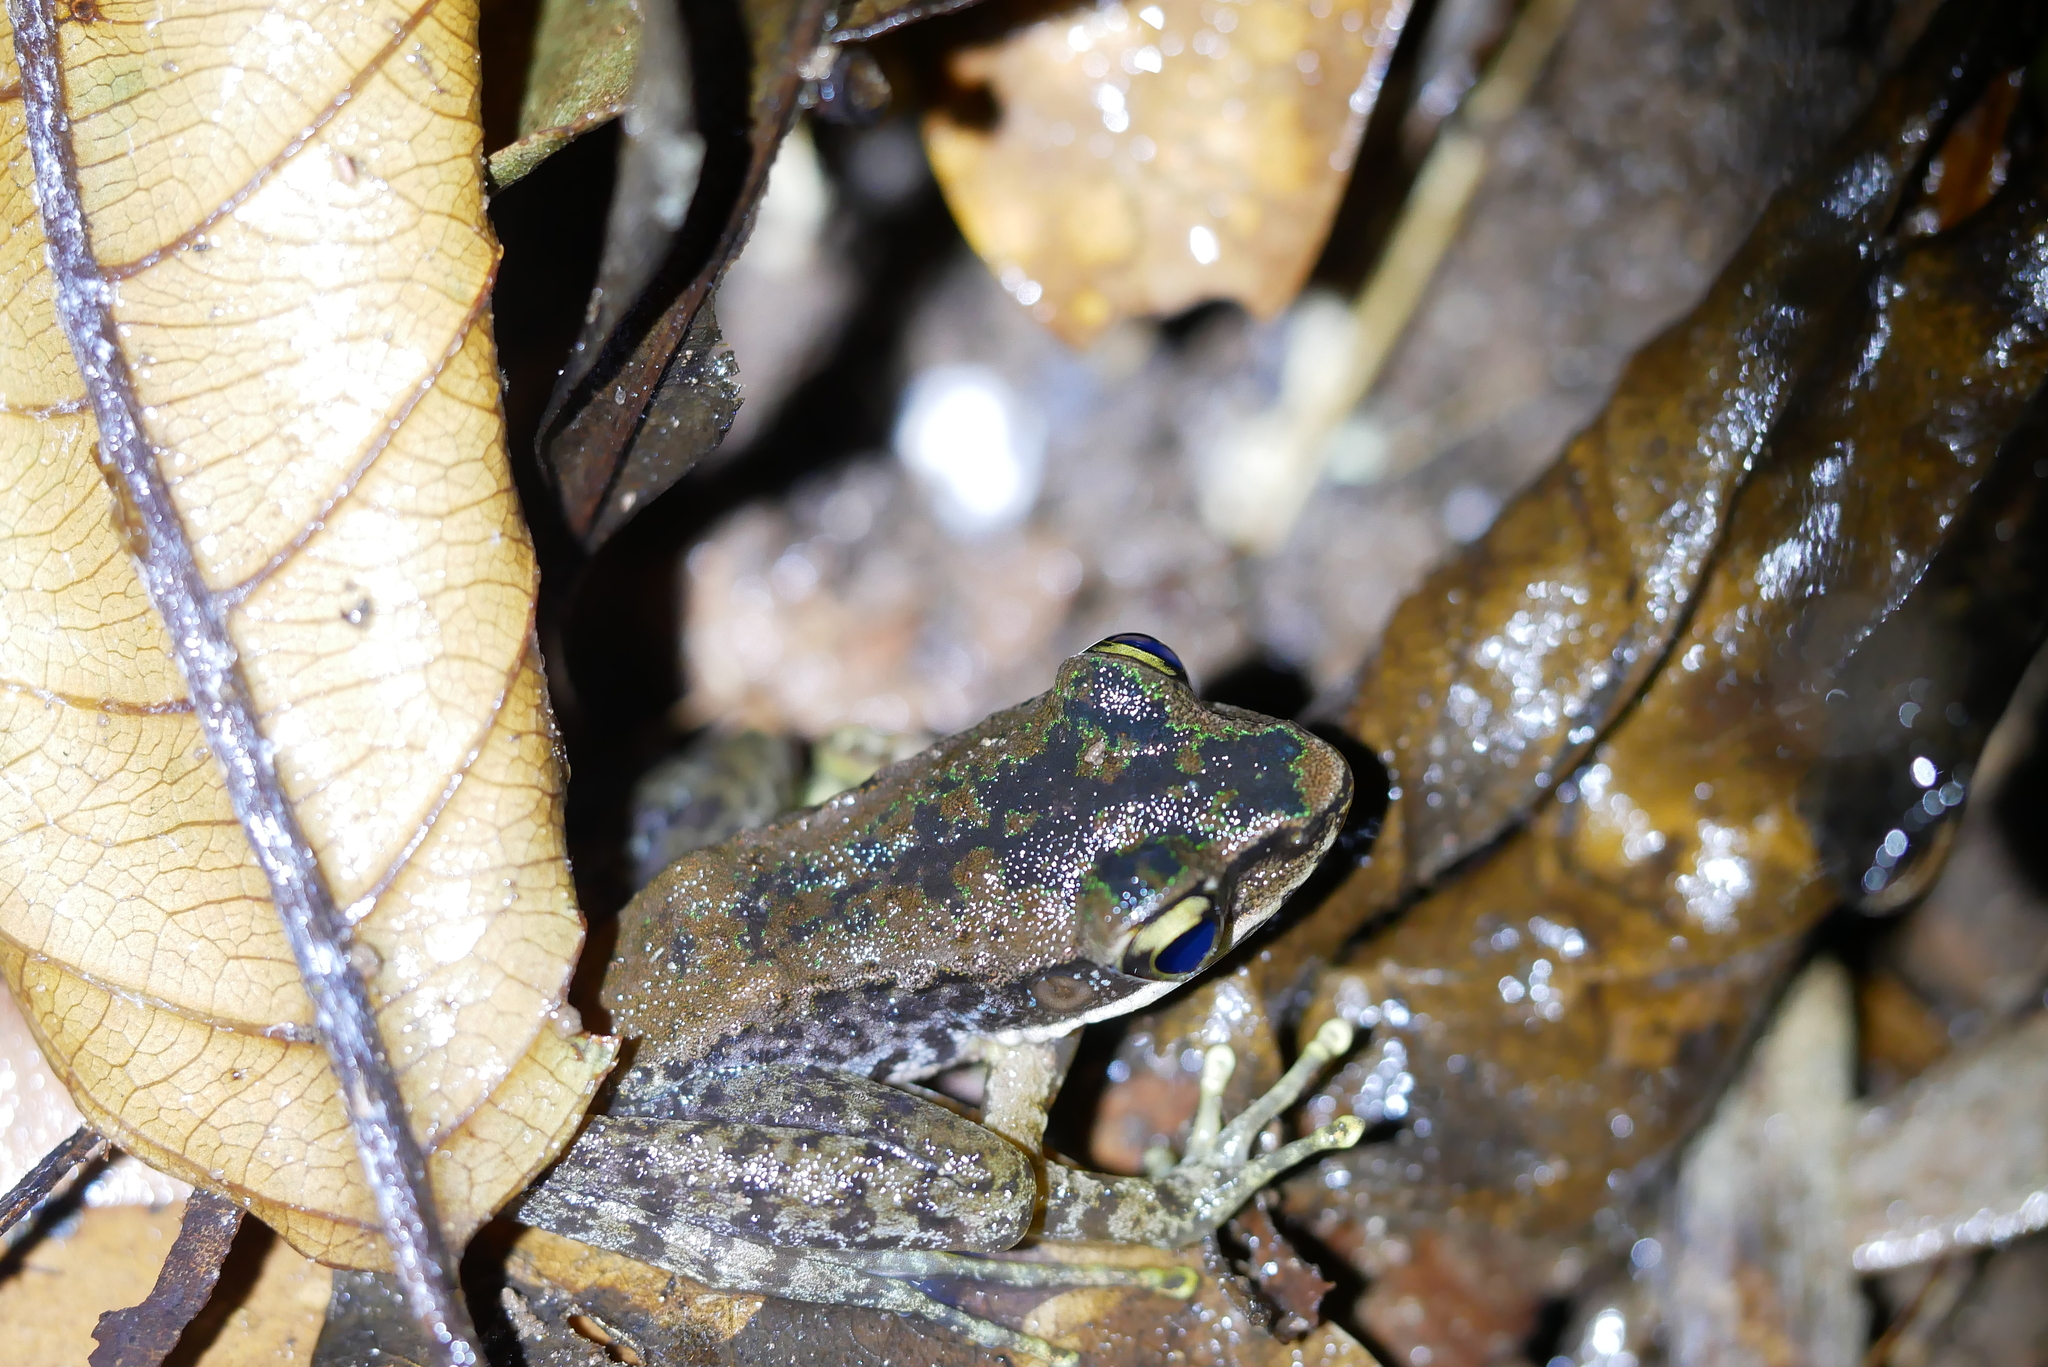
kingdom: Animalia
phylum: Chordata
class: Amphibia
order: Anura
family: Ranidae
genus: Odorrana
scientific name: Odorrana swinhoana
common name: Bangkimtsing frog
